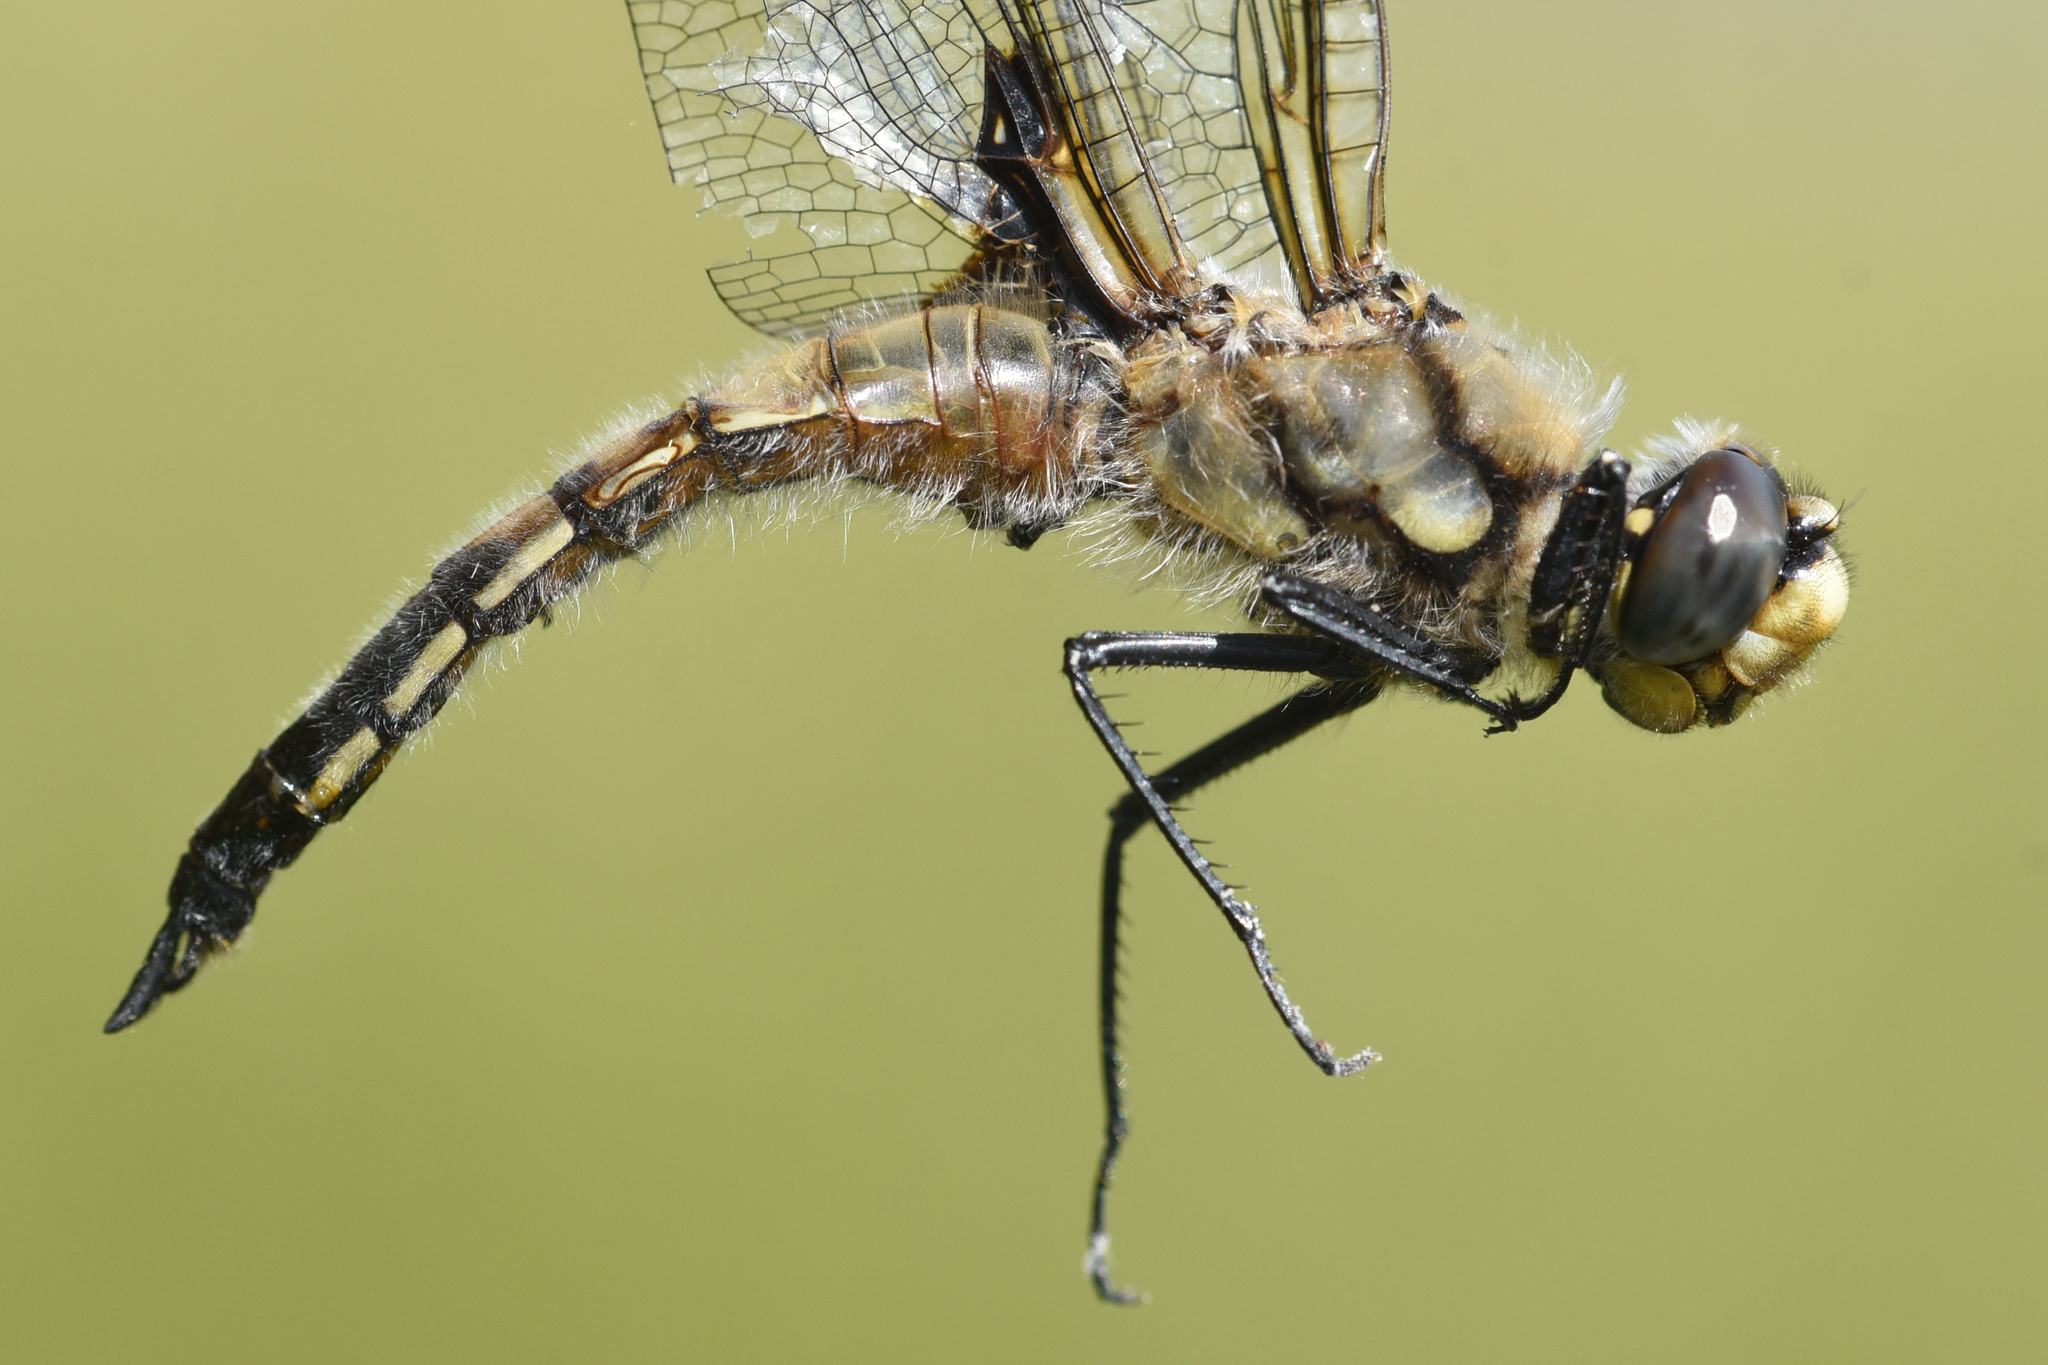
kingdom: Animalia
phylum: Arthropoda
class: Insecta
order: Odonata
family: Libellulidae
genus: Libellula
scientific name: Libellula quadrimaculata
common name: Four-spotted chaser
